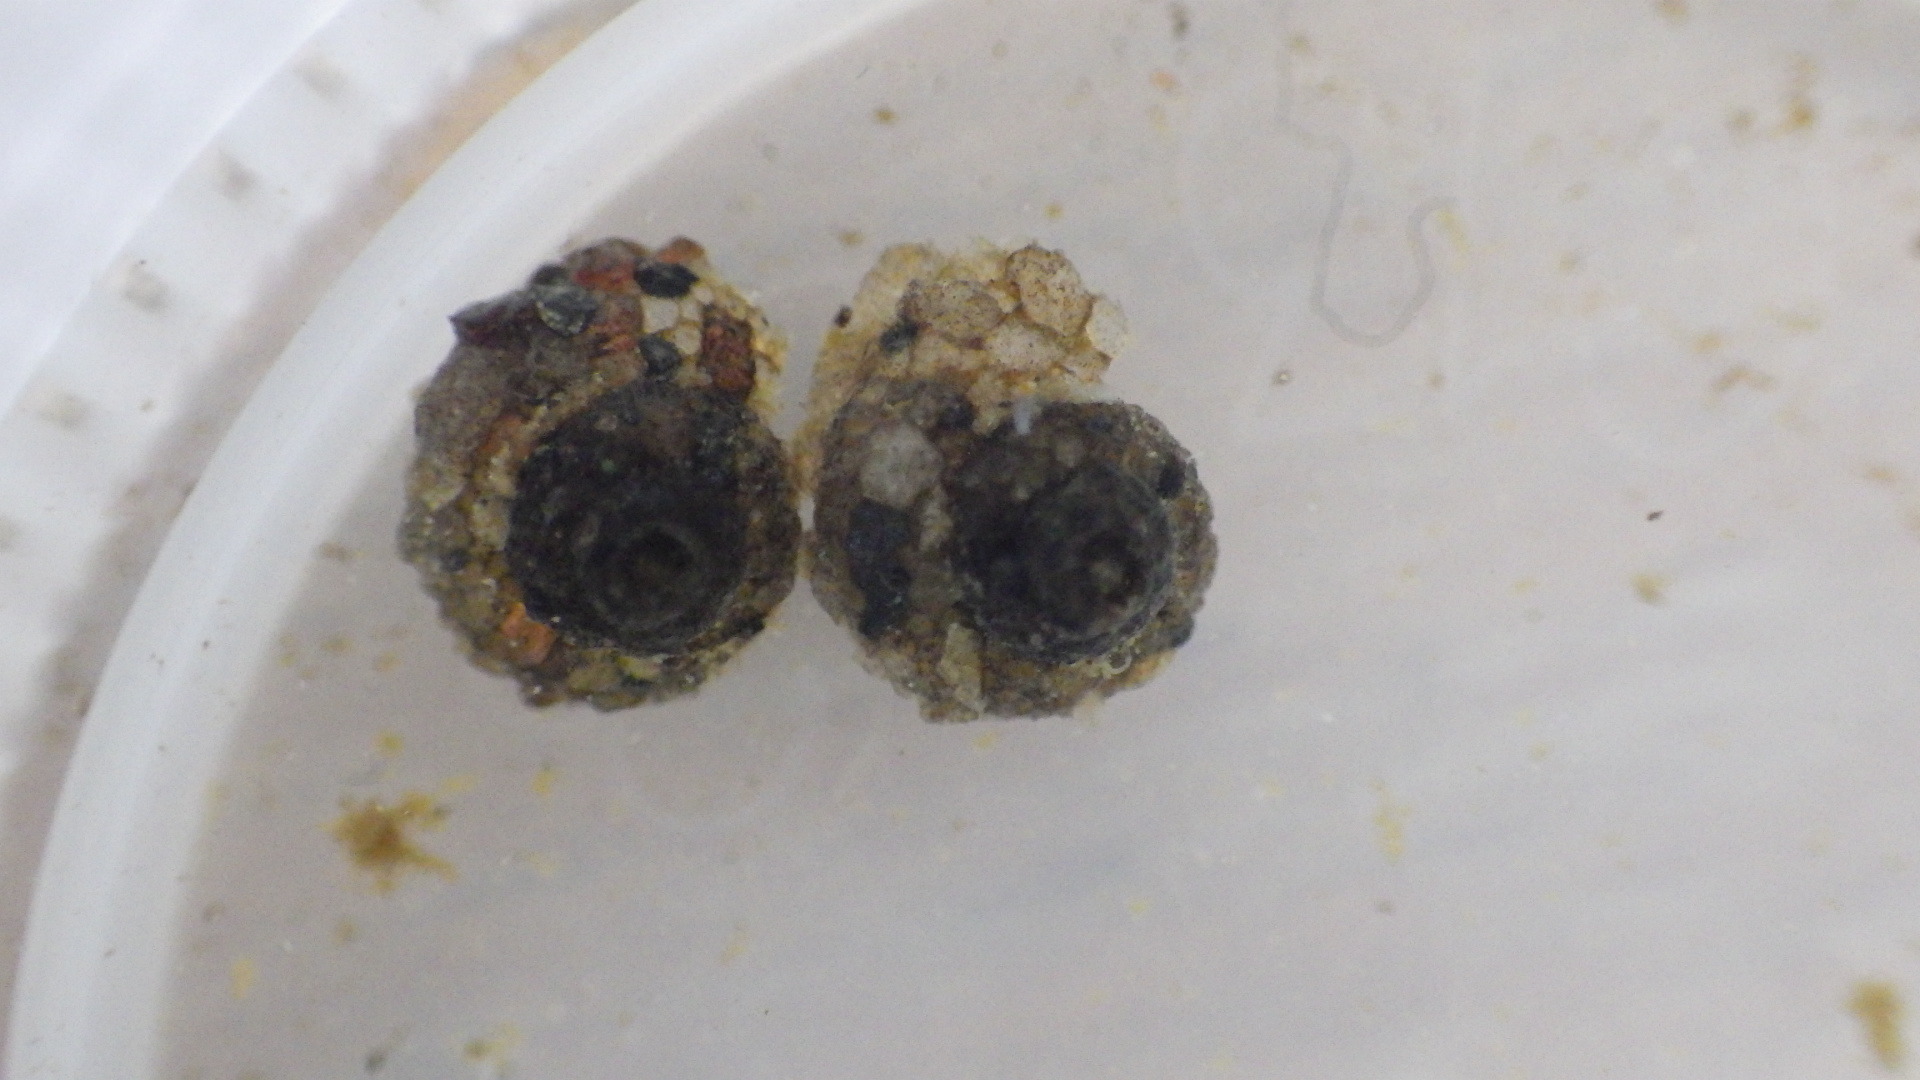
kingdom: Animalia
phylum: Arthropoda
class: Insecta
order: Trichoptera
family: Helicopsychidae
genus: Helicopsyche
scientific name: Helicopsyche borealis
